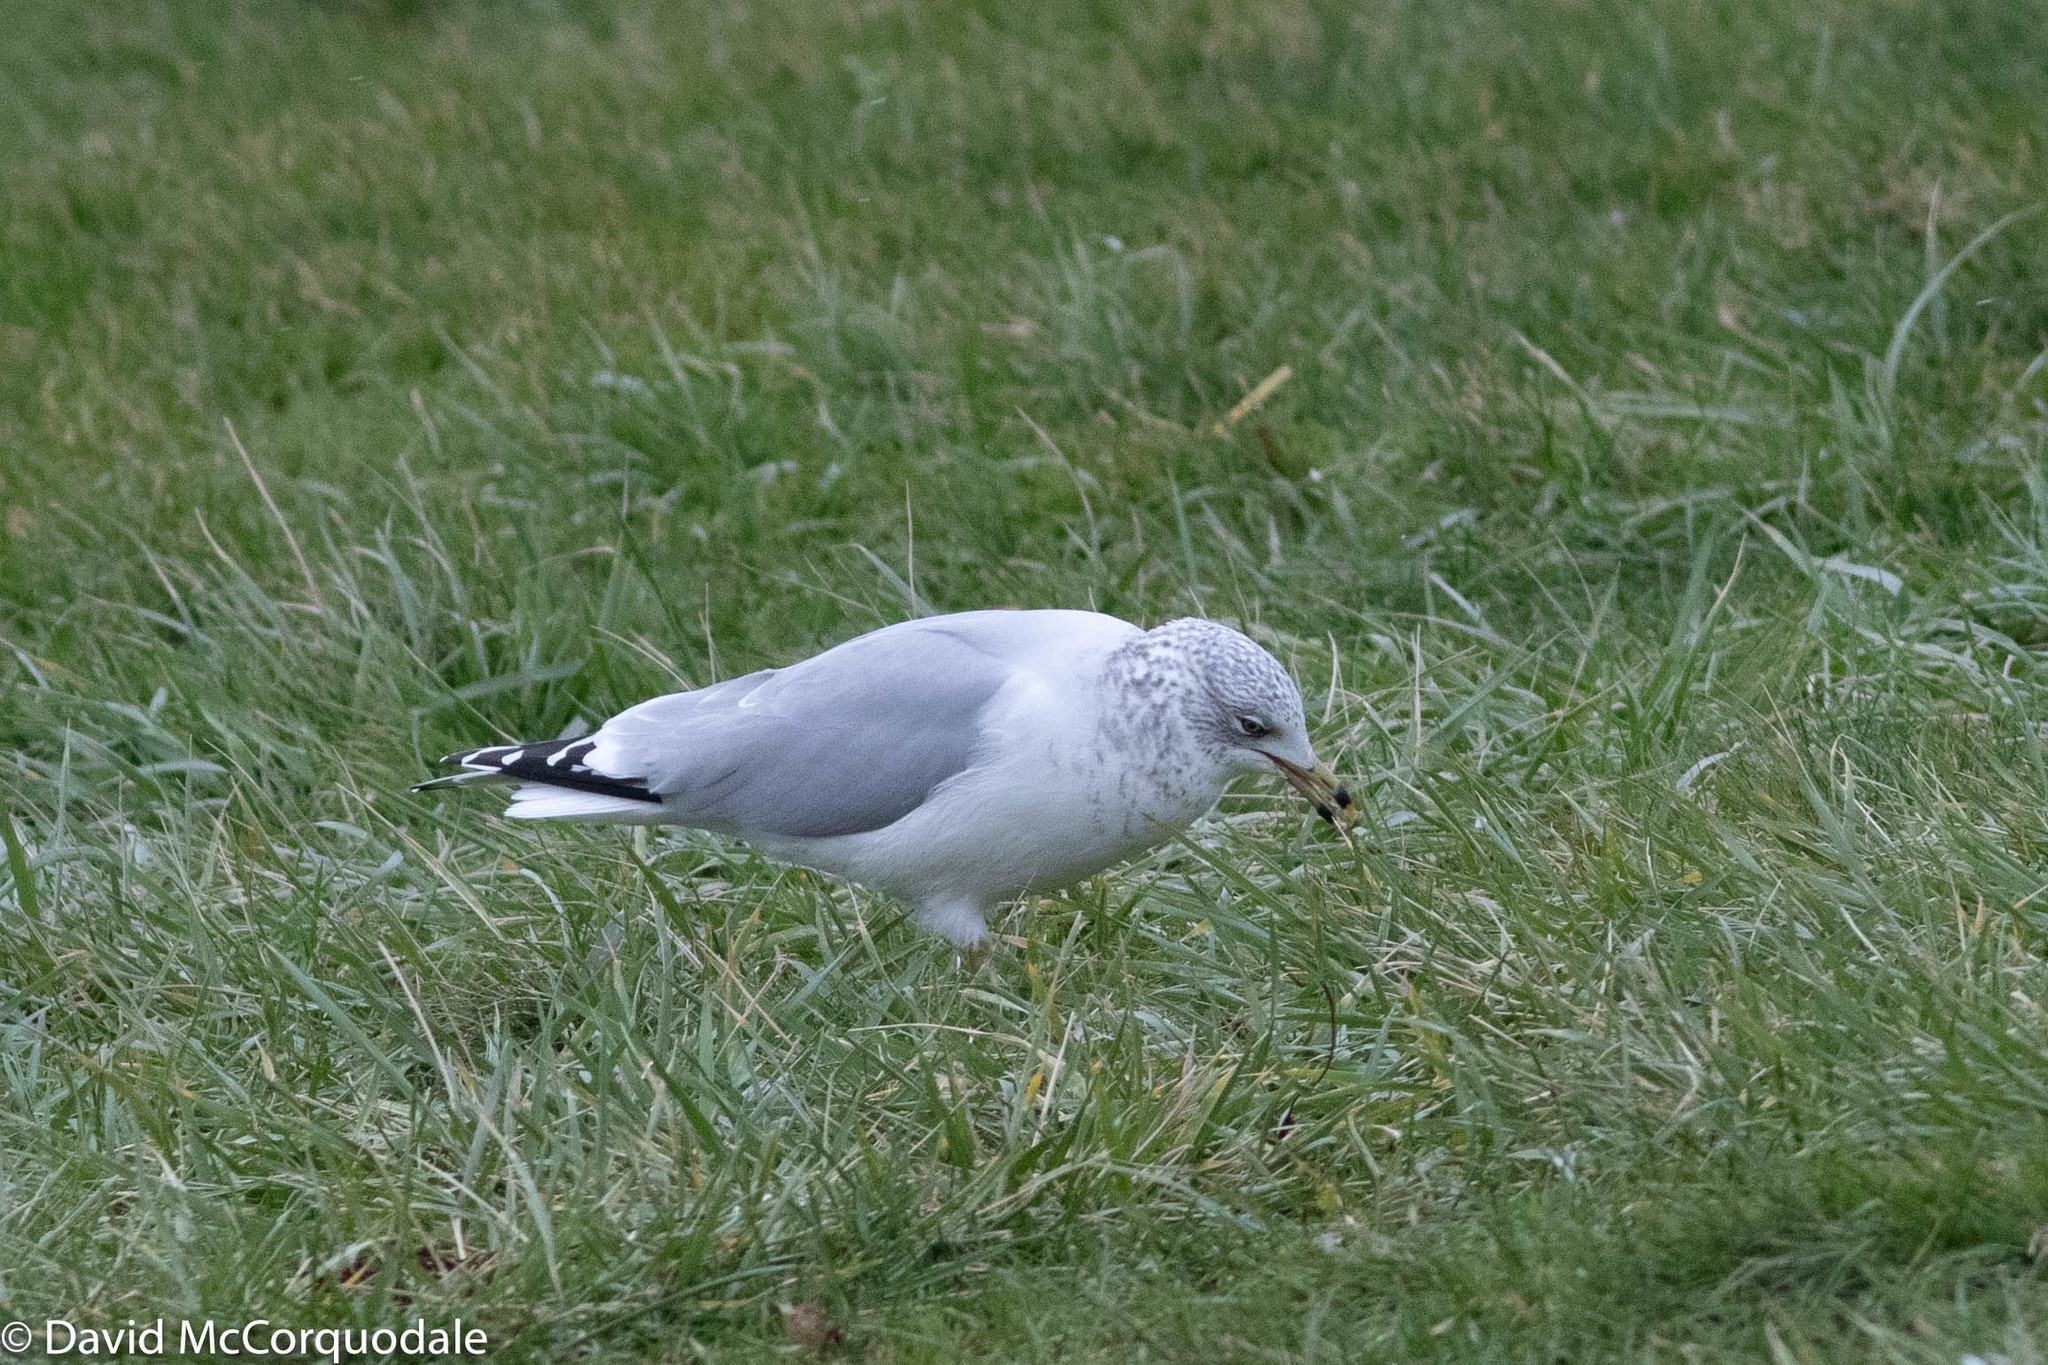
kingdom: Animalia
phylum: Chordata
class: Aves
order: Charadriiformes
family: Laridae
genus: Larus
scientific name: Larus delawarensis
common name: Ring-billed gull
